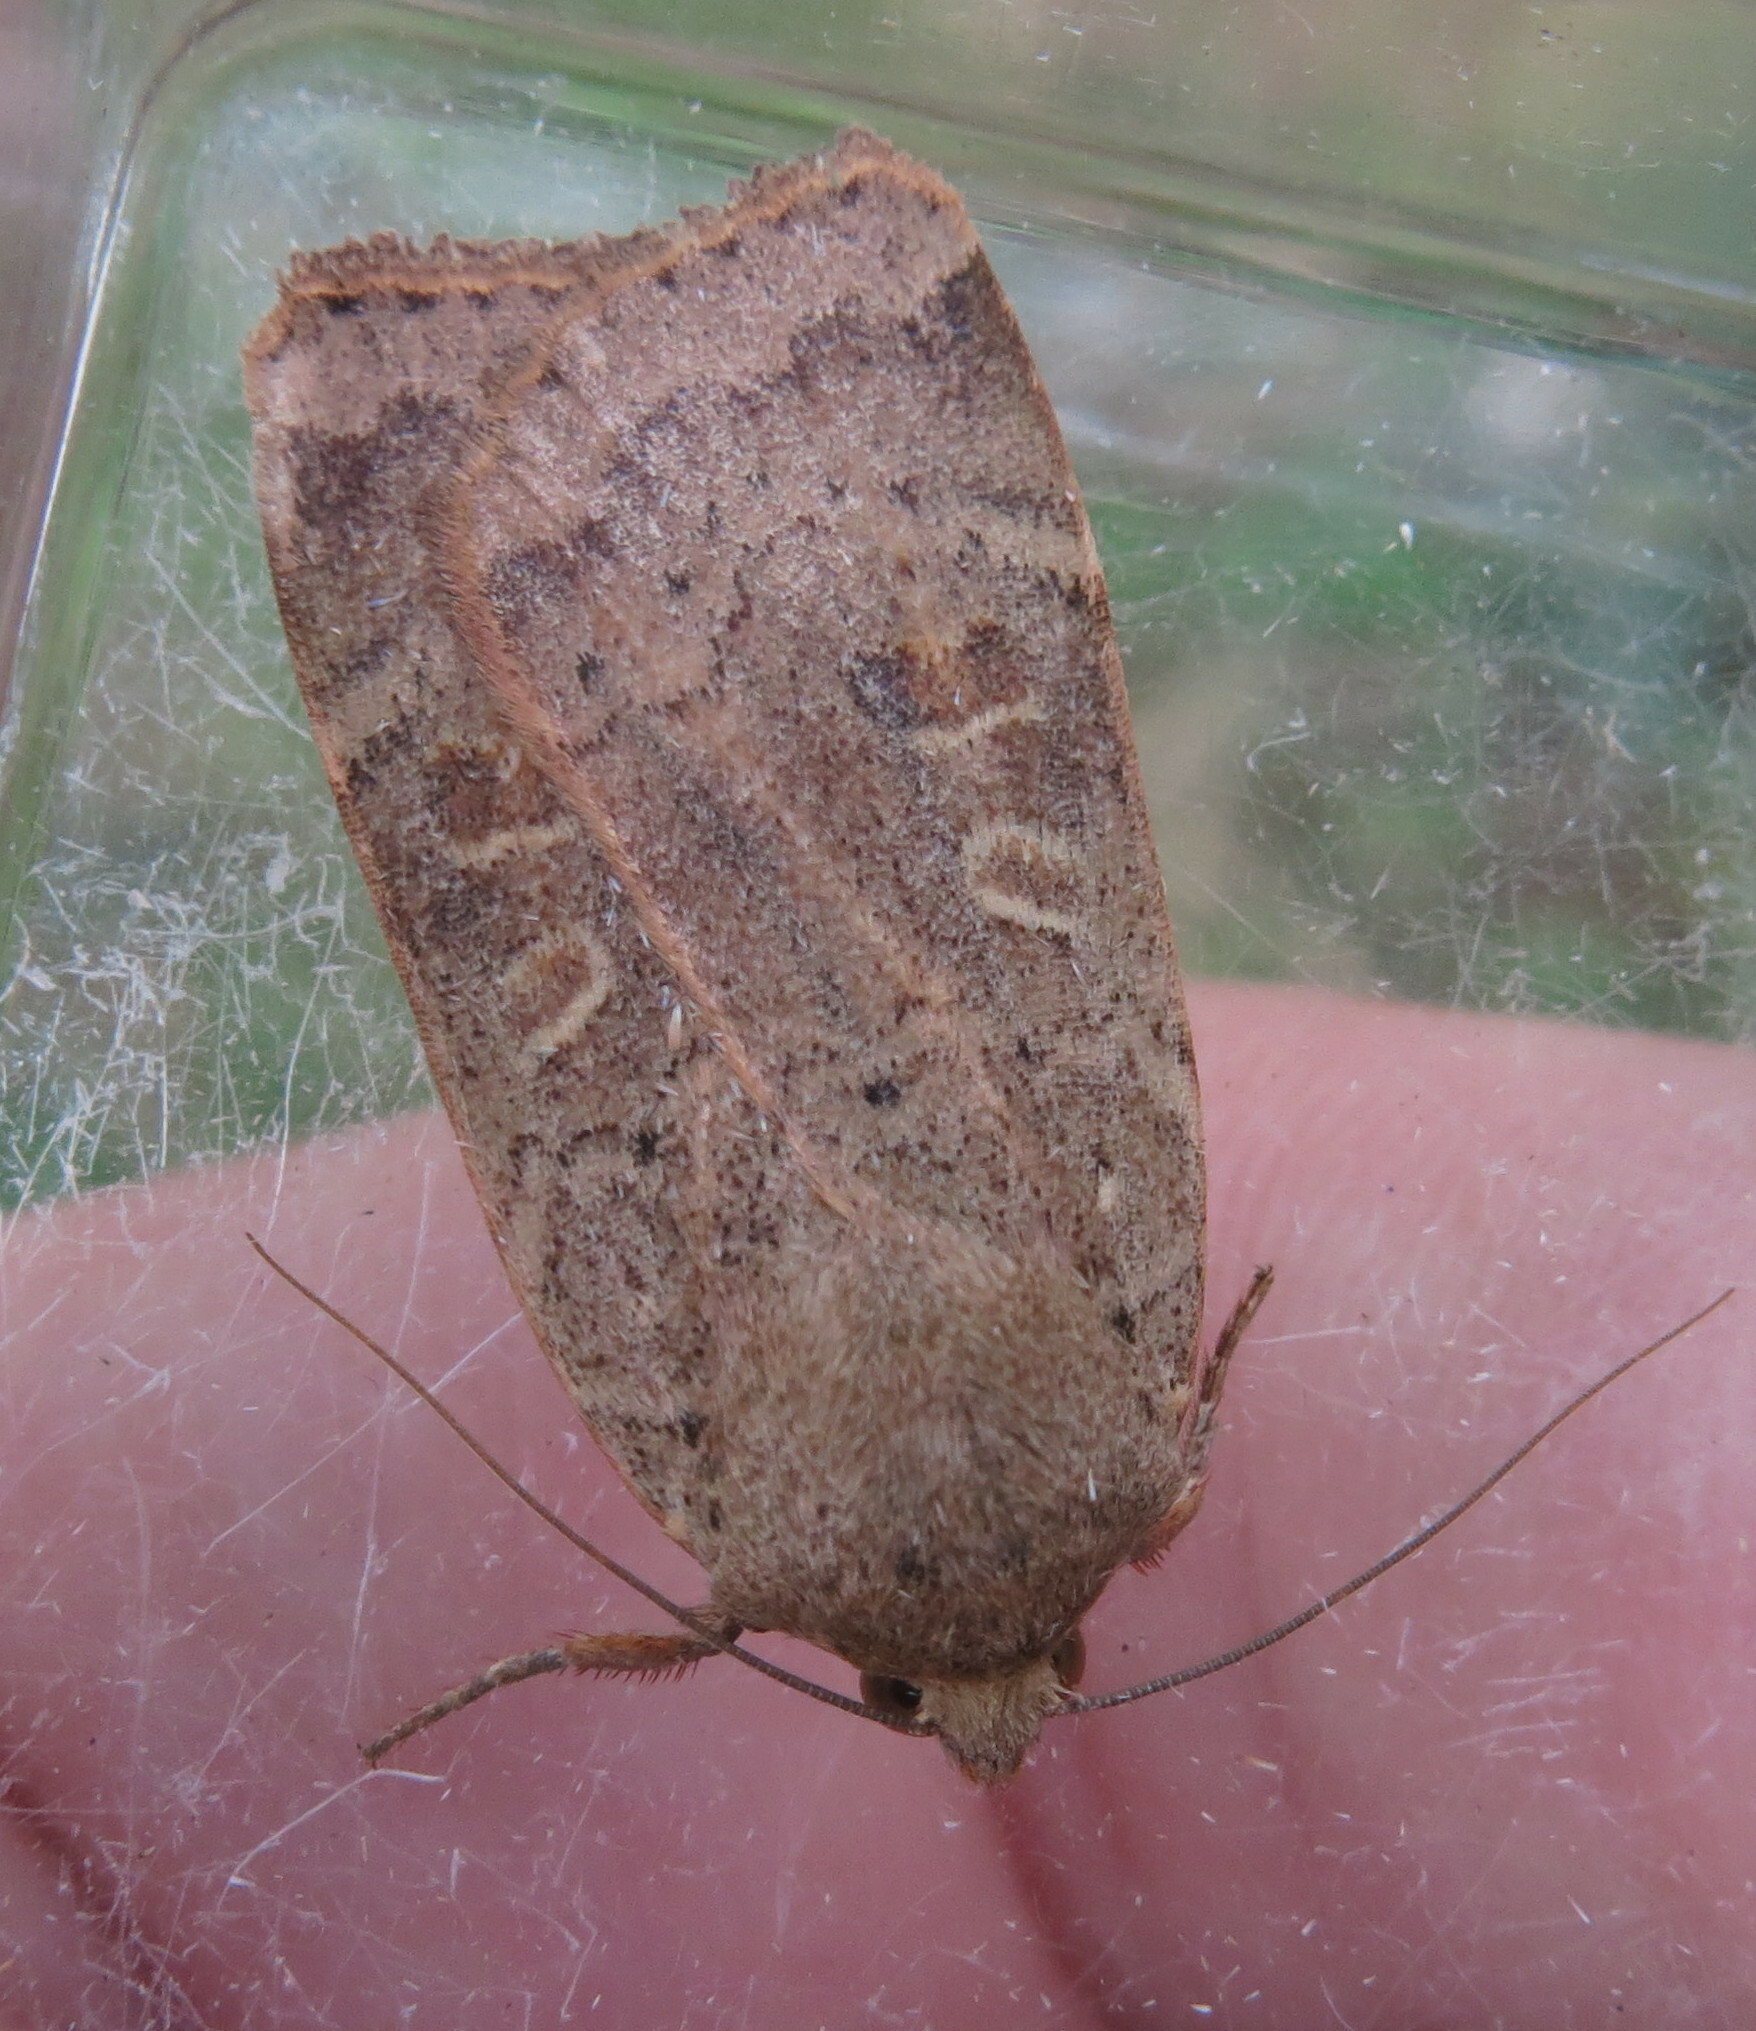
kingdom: Animalia
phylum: Arthropoda
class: Insecta
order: Lepidoptera
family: Noctuidae
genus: Noctua
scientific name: Noctua comes
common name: Lesser yellow underwing
